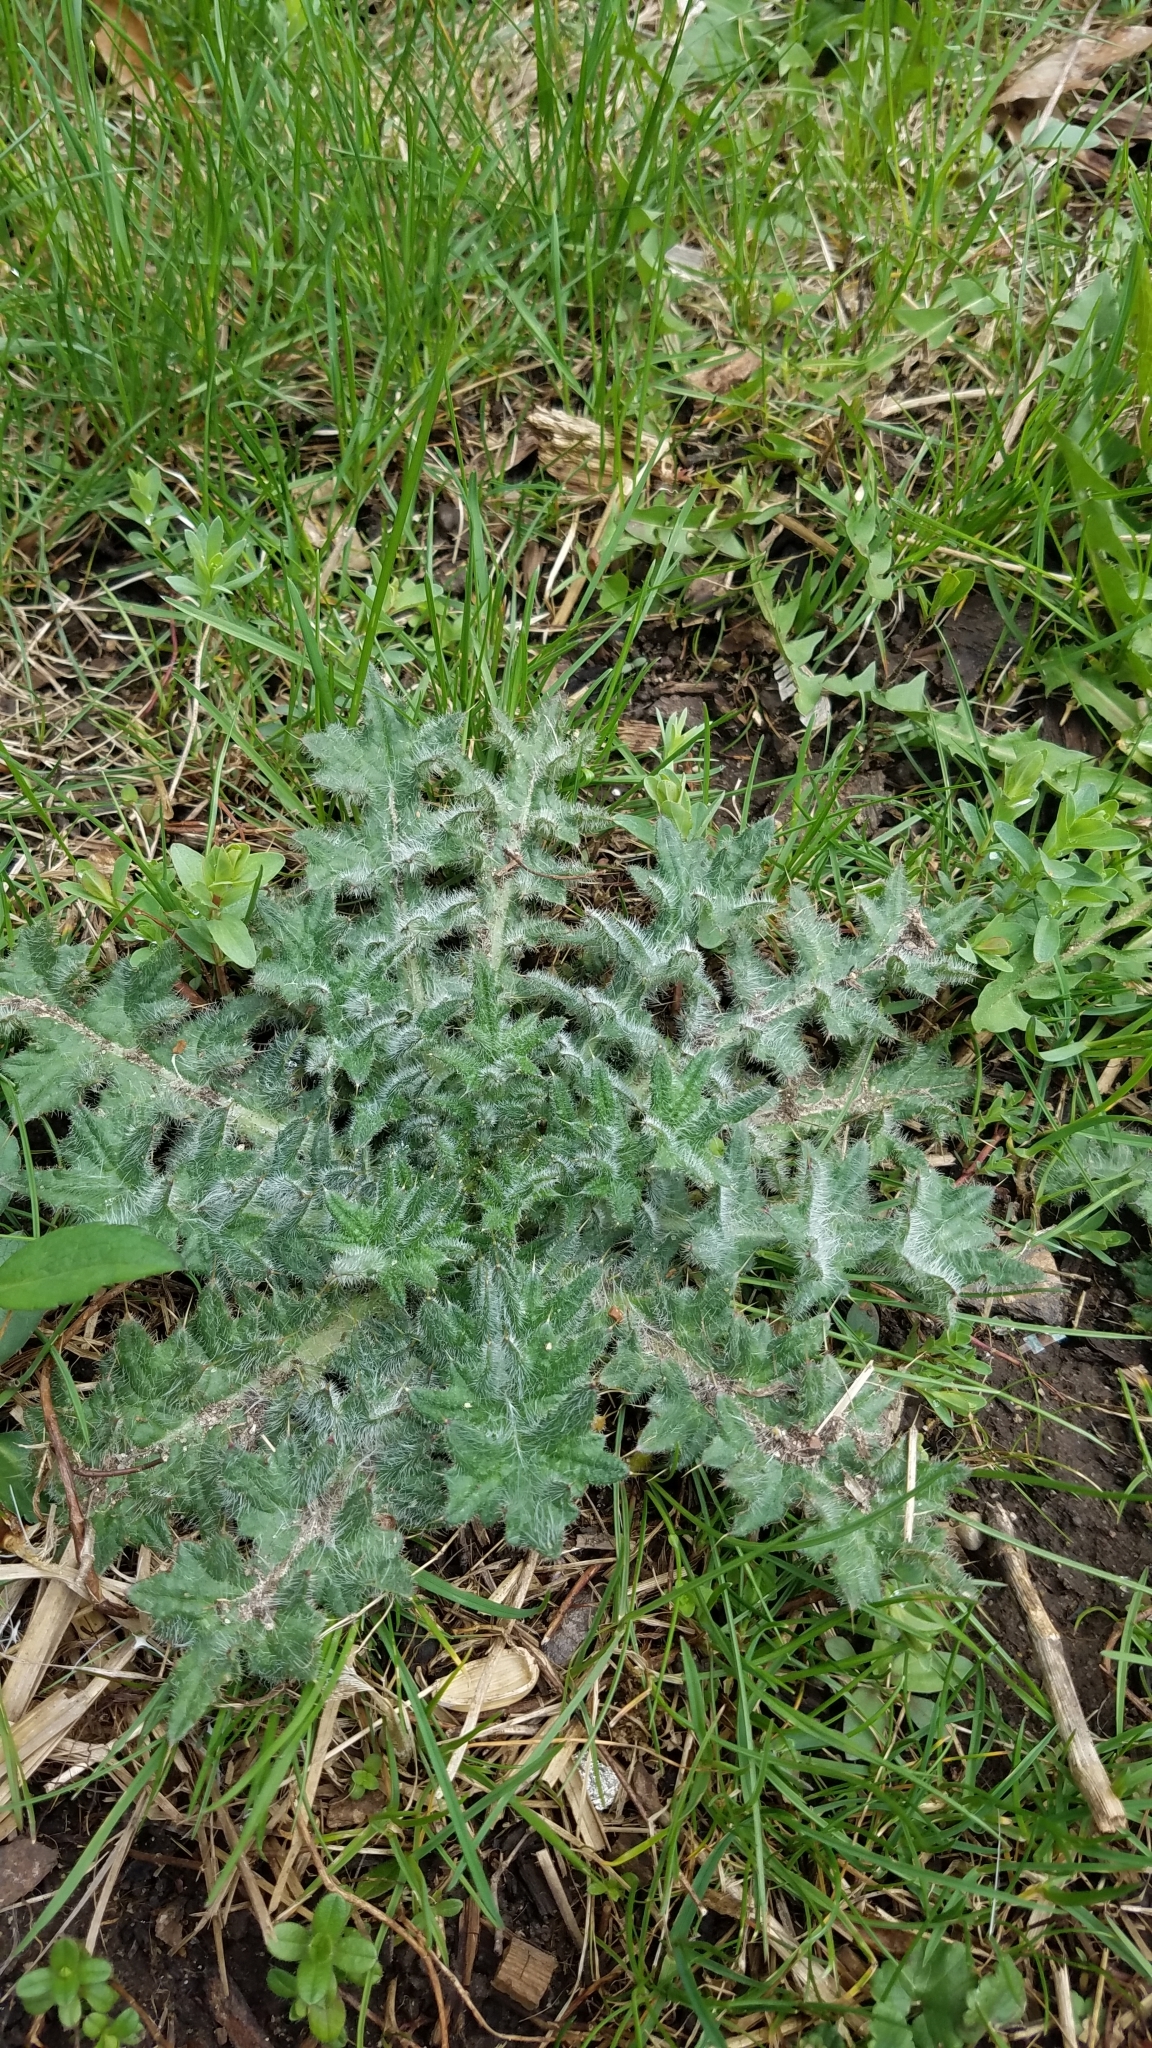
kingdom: Plantae
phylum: Tracheophyta
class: Magnoliopsida
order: Asterales
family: Asteraceae
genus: Cirsium
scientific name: Cirsium vulgare
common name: Bull thistle
